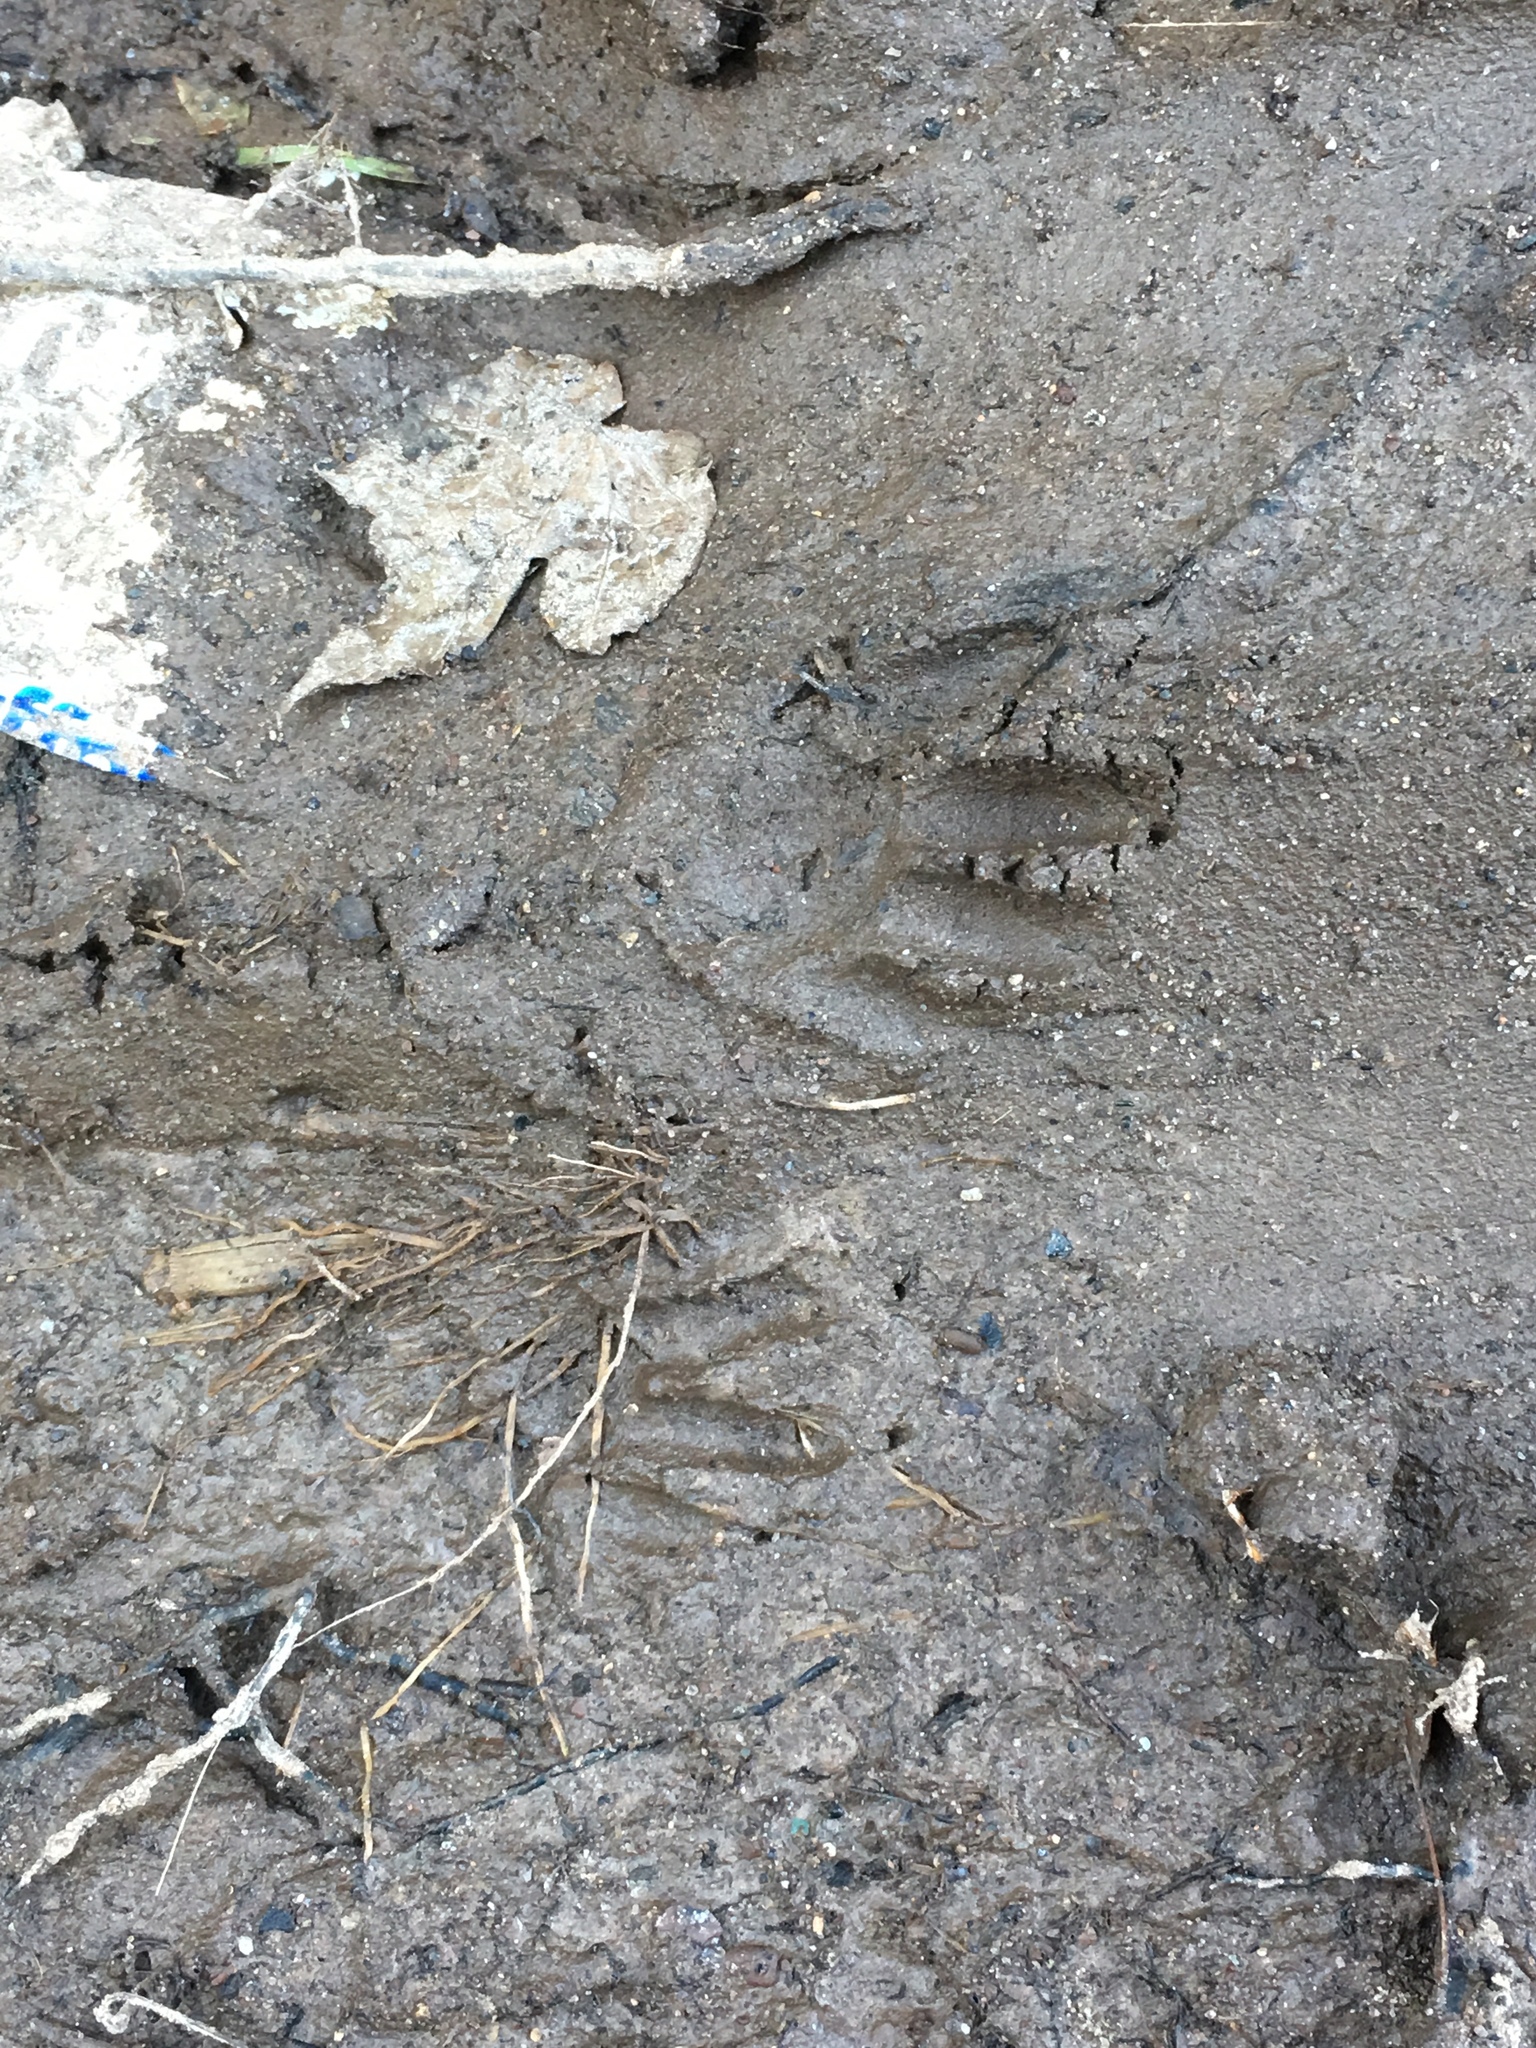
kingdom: Animalia
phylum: Chordata
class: Mammalia
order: Carnivora
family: Procyonidae
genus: Procyon
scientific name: Procyon lotor
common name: Raccoon
